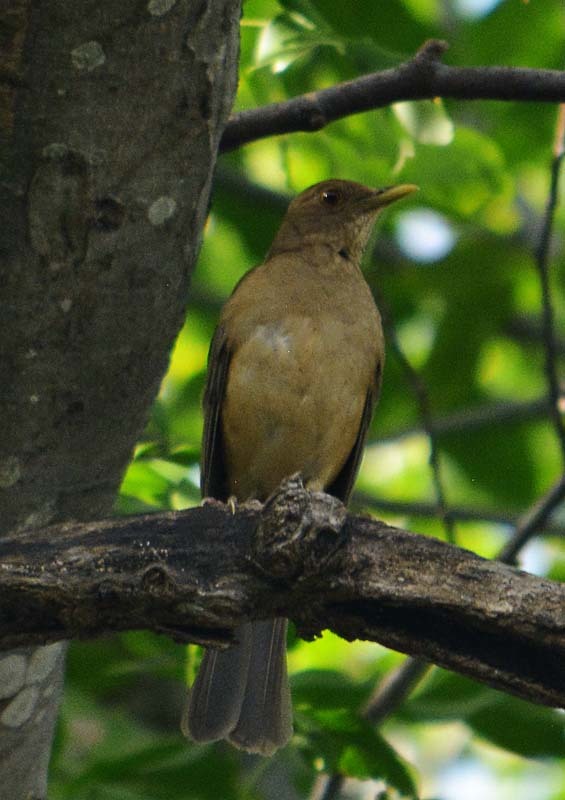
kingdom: Animalia
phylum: Chordata
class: Aves
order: Passeriformes
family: Turdidae
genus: Turdus
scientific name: Turdus grayi
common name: Clay-colored thrush
